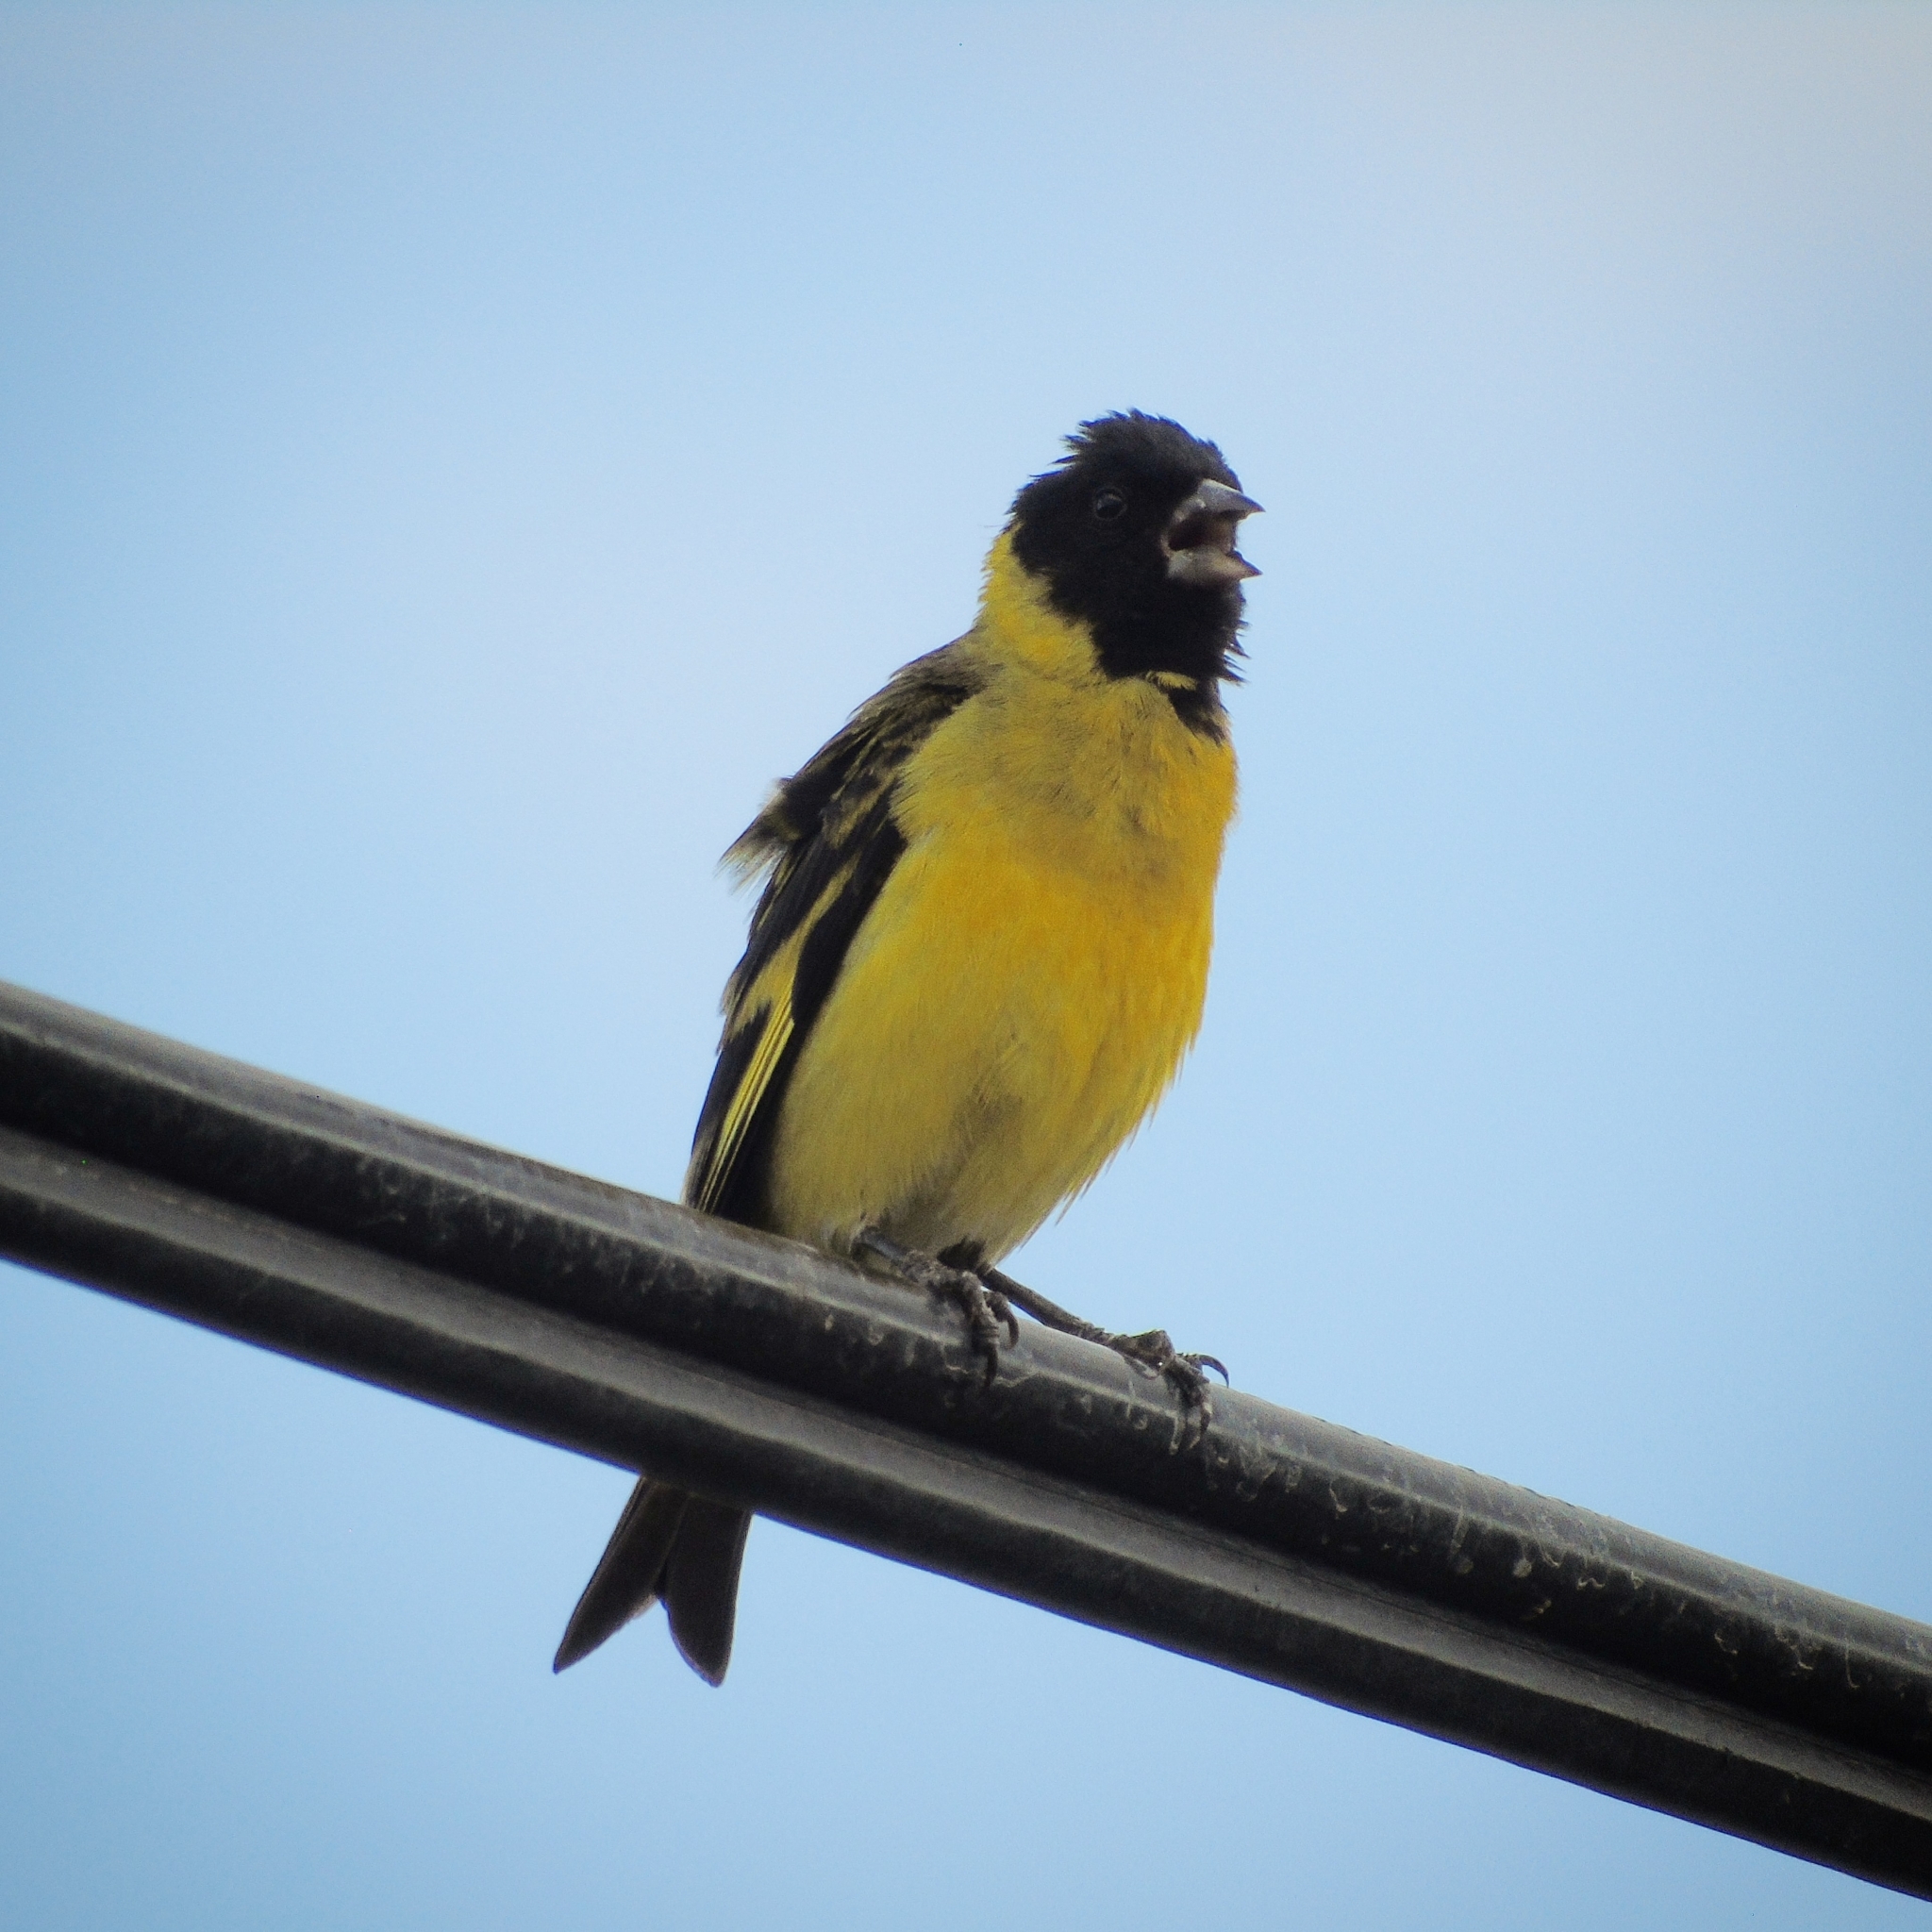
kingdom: Animalia
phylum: Chordata
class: Aves
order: Passeriformes
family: Fringillidae
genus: Spinus
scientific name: Spinus magellanicus
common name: Hooded siskin
